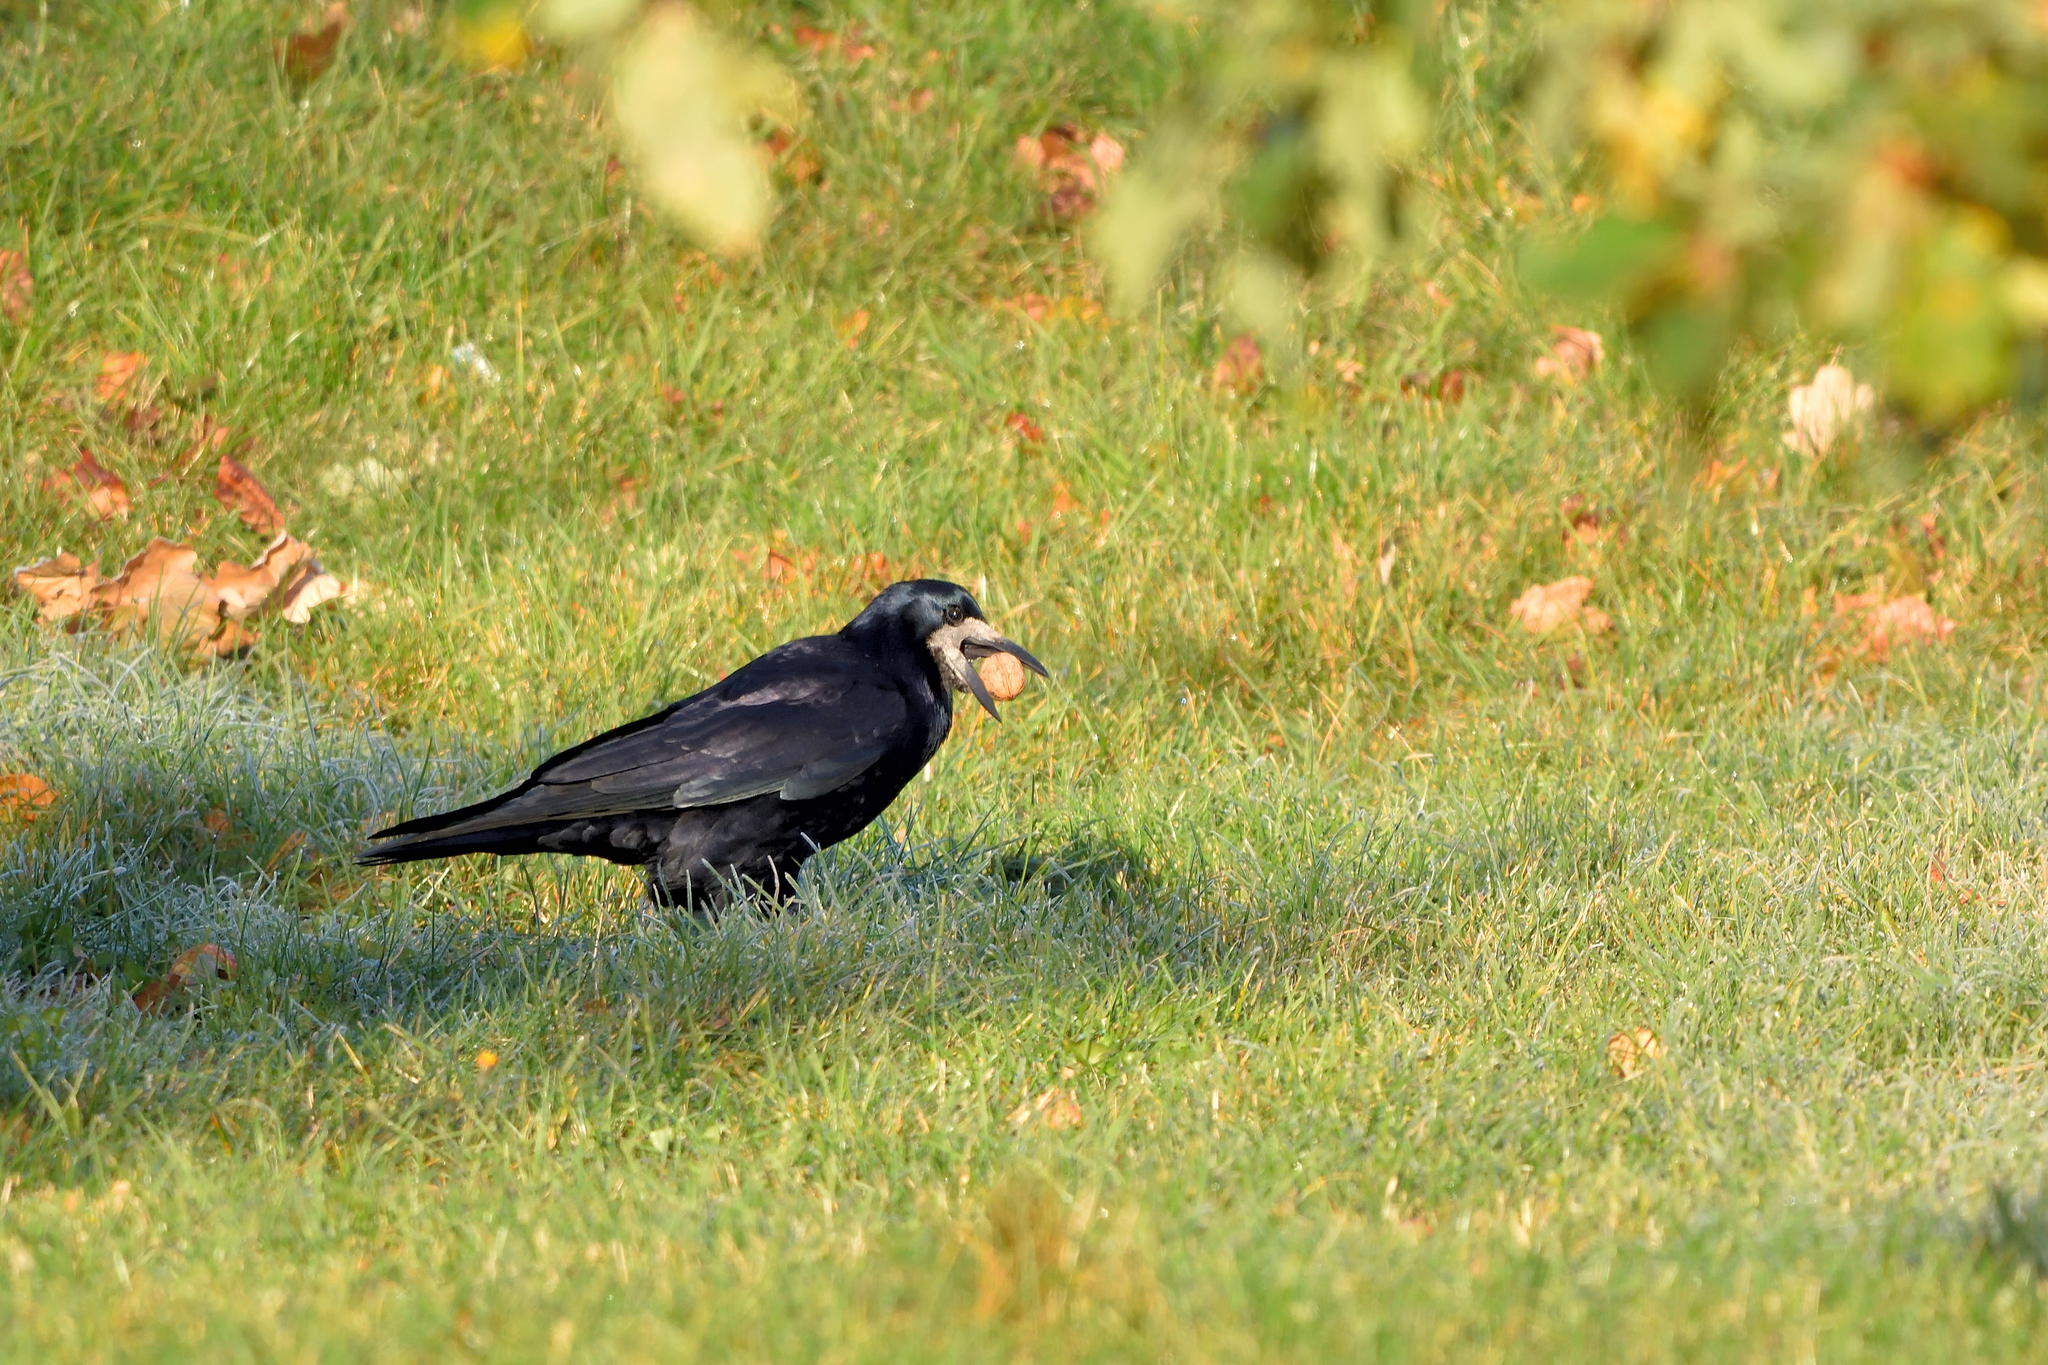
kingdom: Animalia
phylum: Chordata
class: Aves
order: Passeriformes
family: Corvidae
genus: Corvus
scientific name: Corvus frugilegus
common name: Rook
